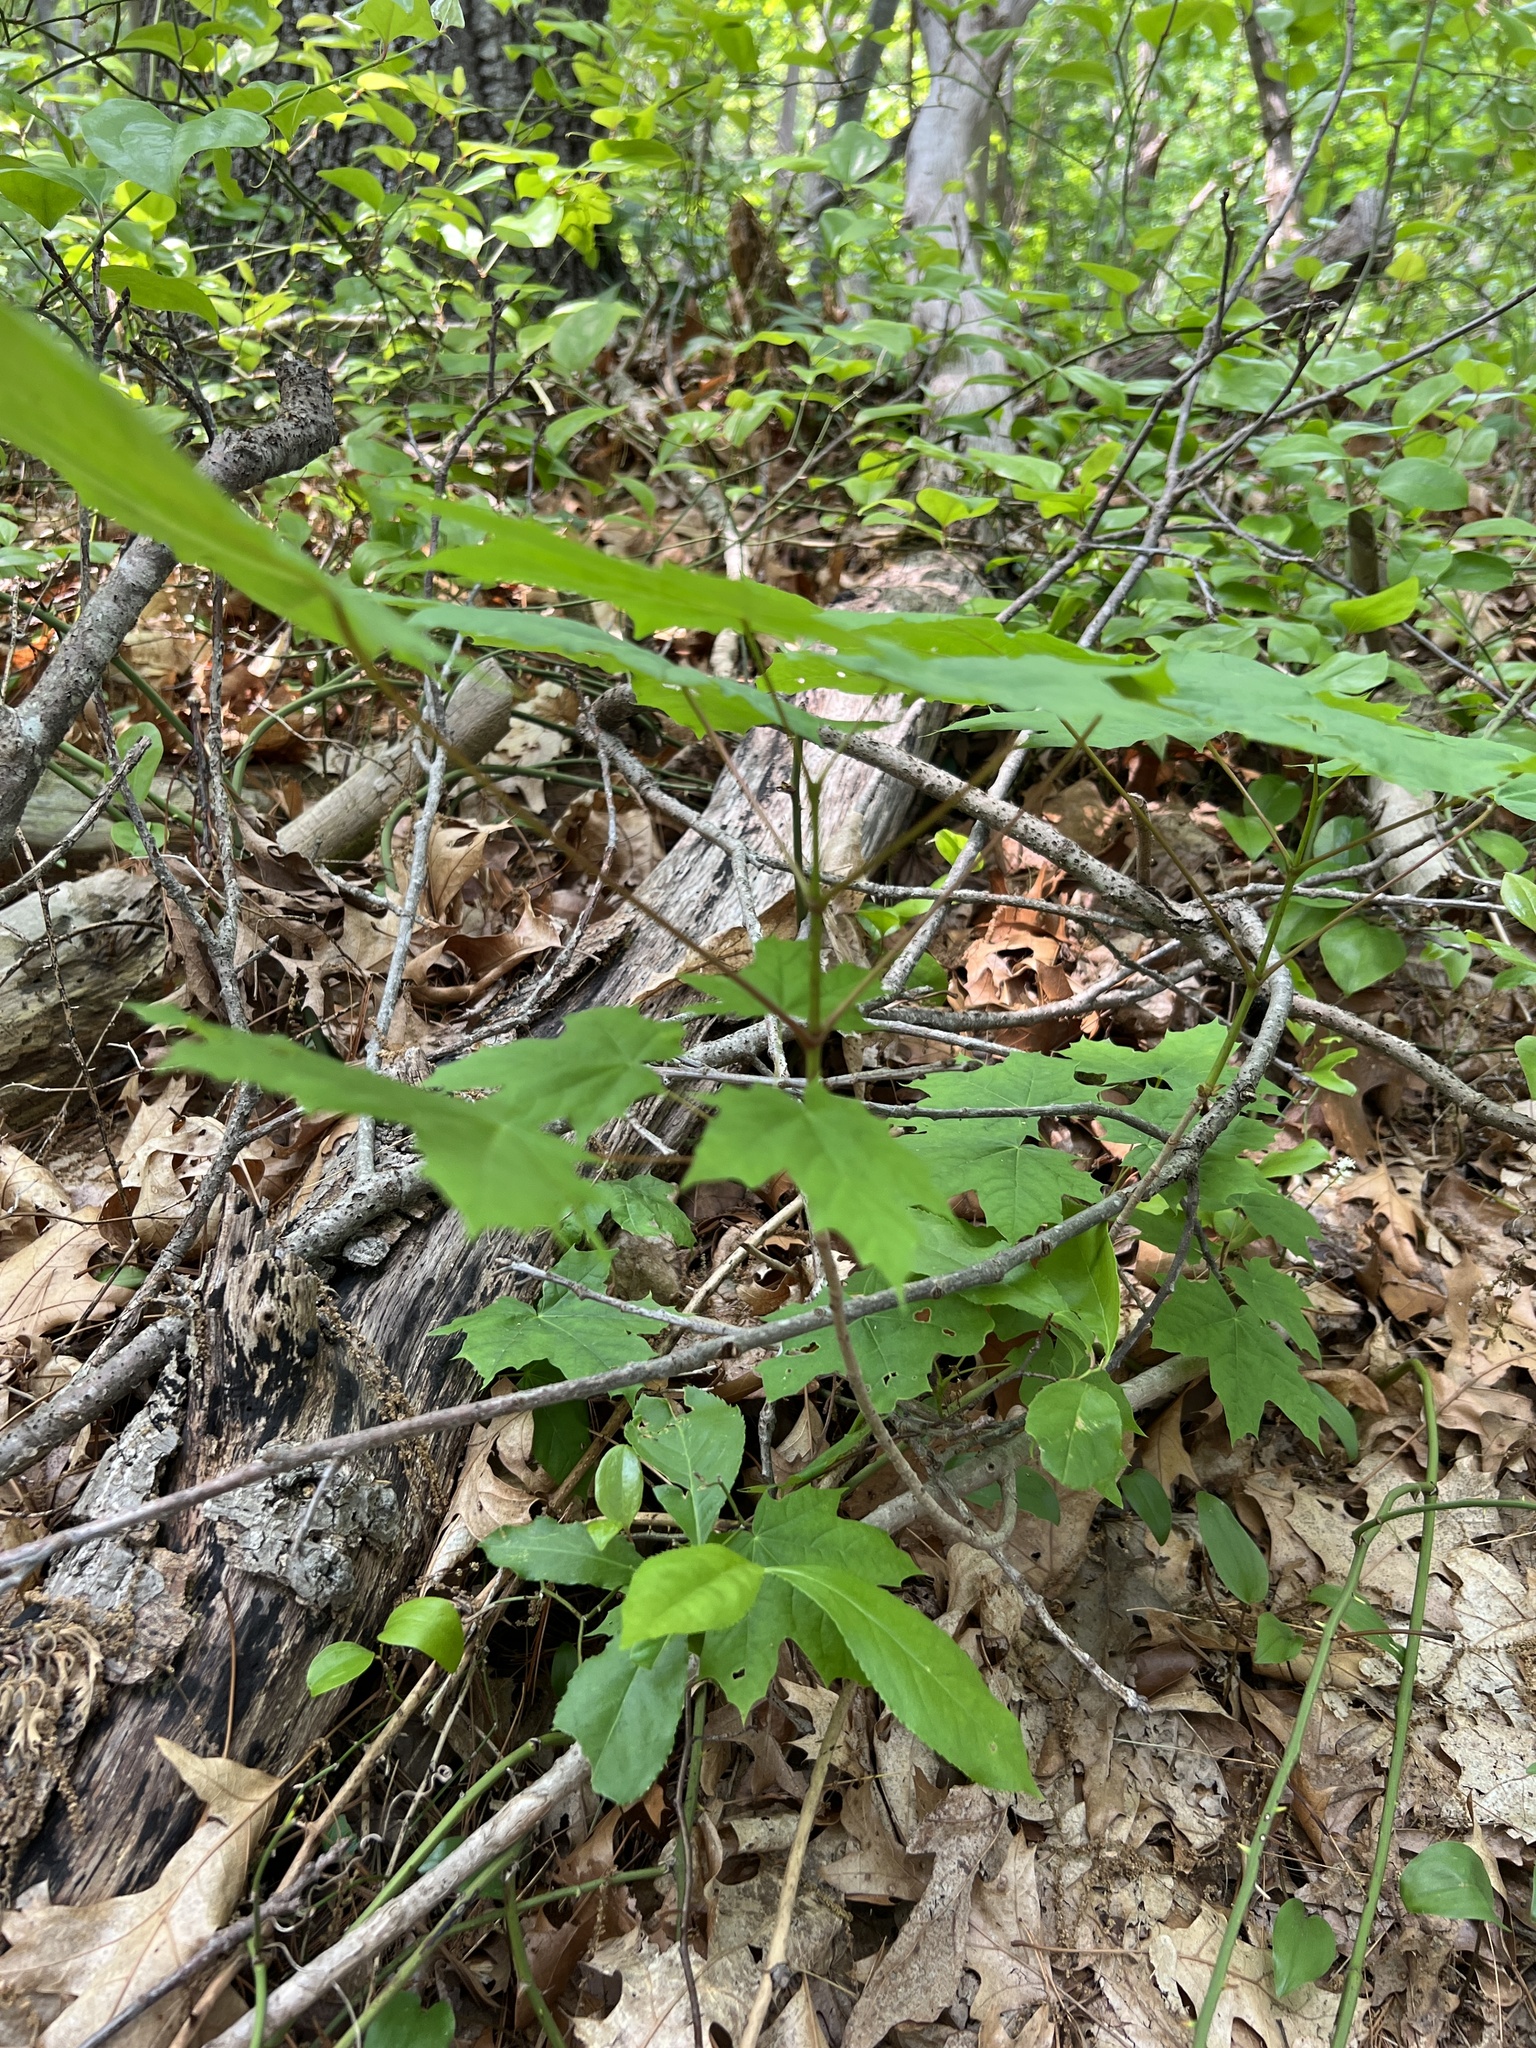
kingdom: Plantae
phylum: Tracheophyta
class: Magnoliopsida
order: Sapindales
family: Sapindaceae
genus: Acer
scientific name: Acer platanoides
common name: Norway maple
